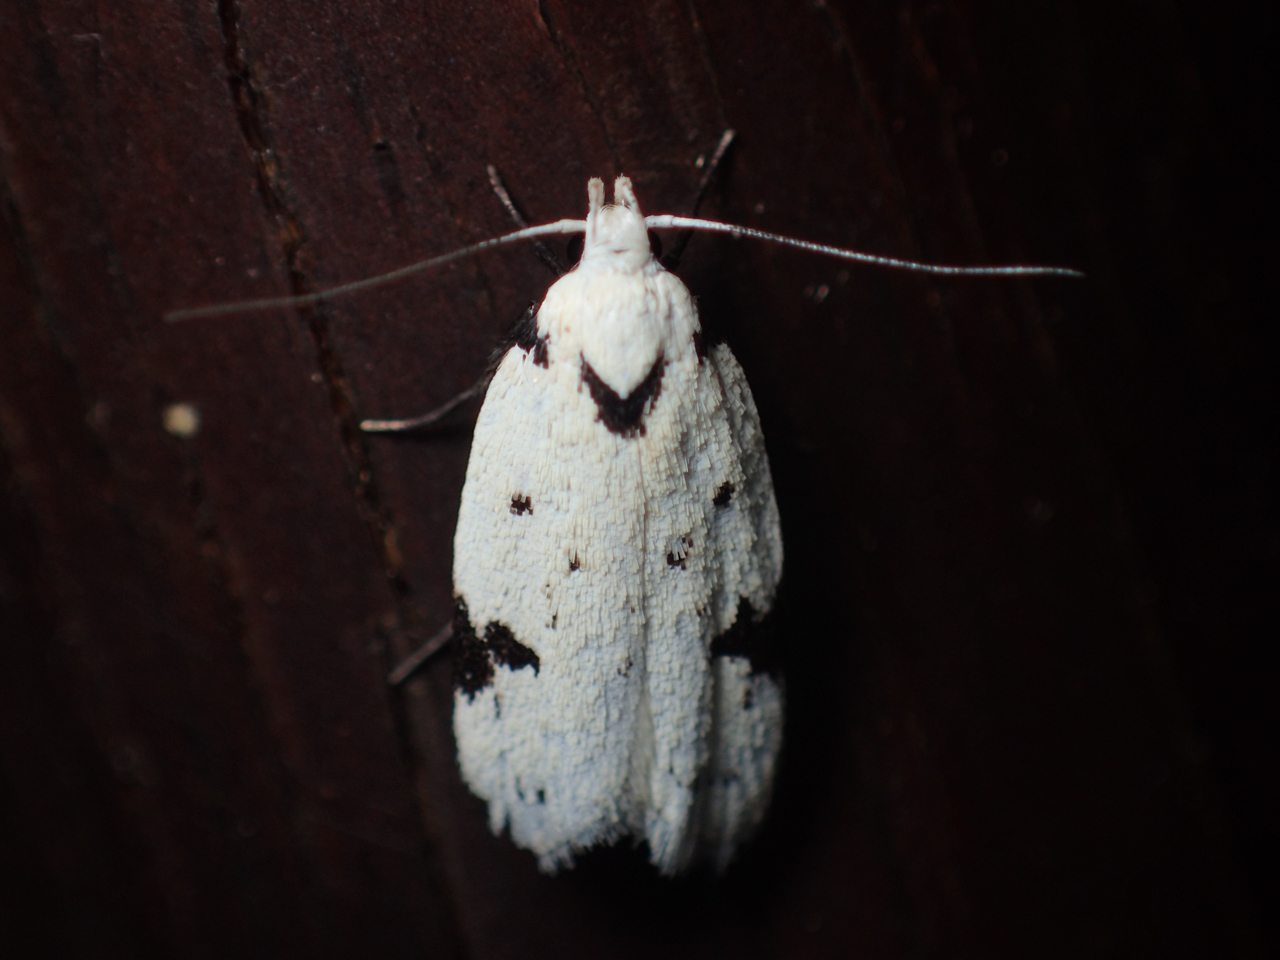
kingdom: Animalia
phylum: Arthropoda
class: Insecta
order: Lepidoptera
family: Oecophoridae
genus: Inga
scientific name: Inga sparsiciliella
